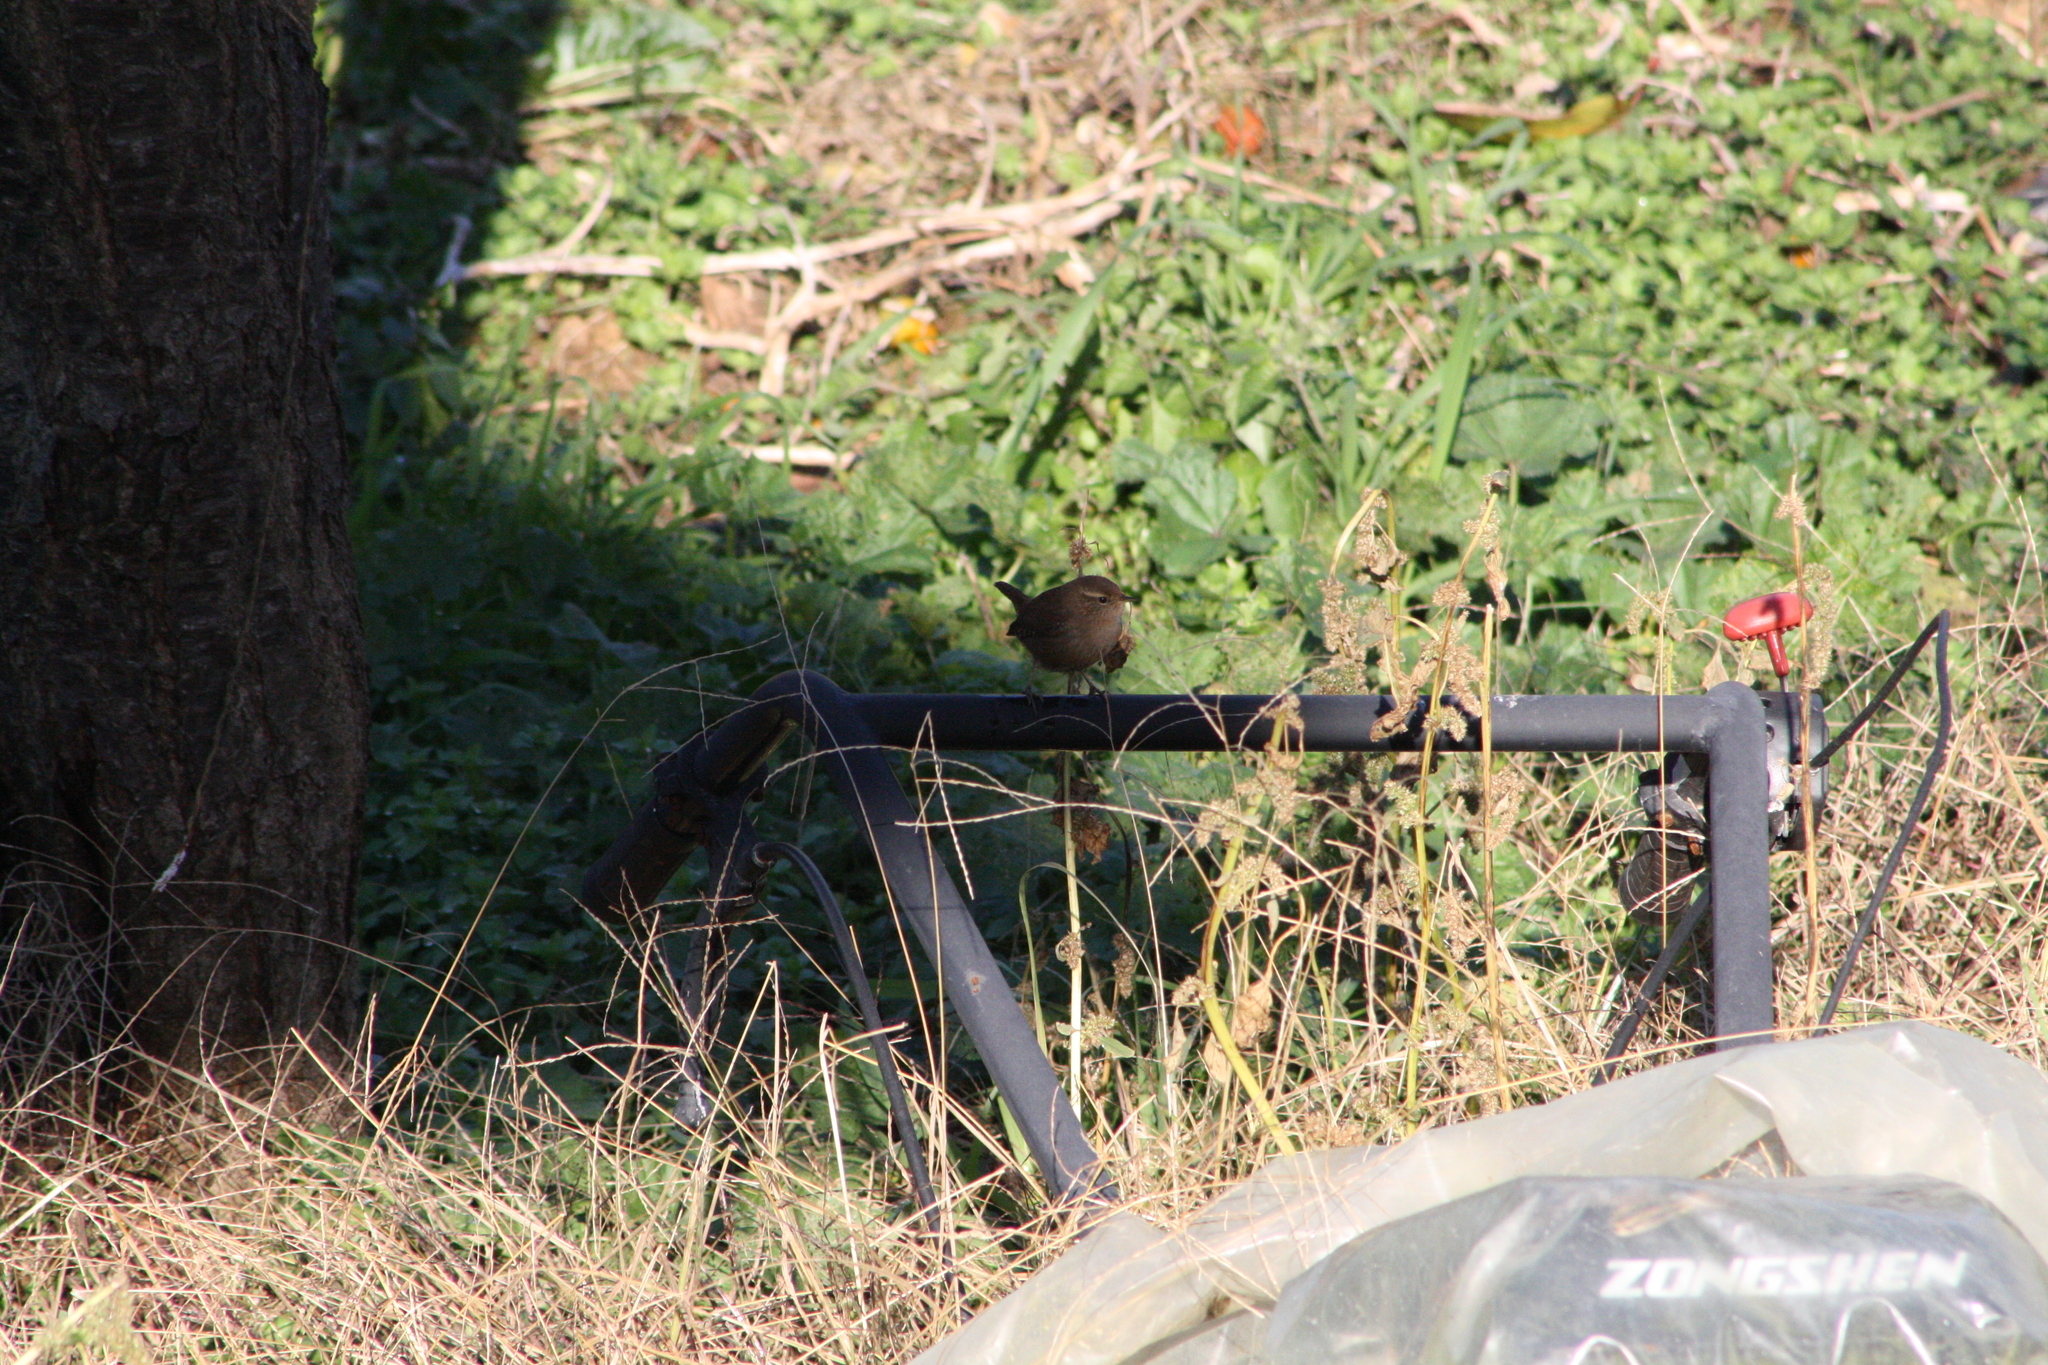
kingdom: Animalia
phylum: Chordata
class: Aves
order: Passeriformes
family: Troglodytidae
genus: Troglodytes
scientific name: Troglodytes troglodytes
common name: Eurasian wren
